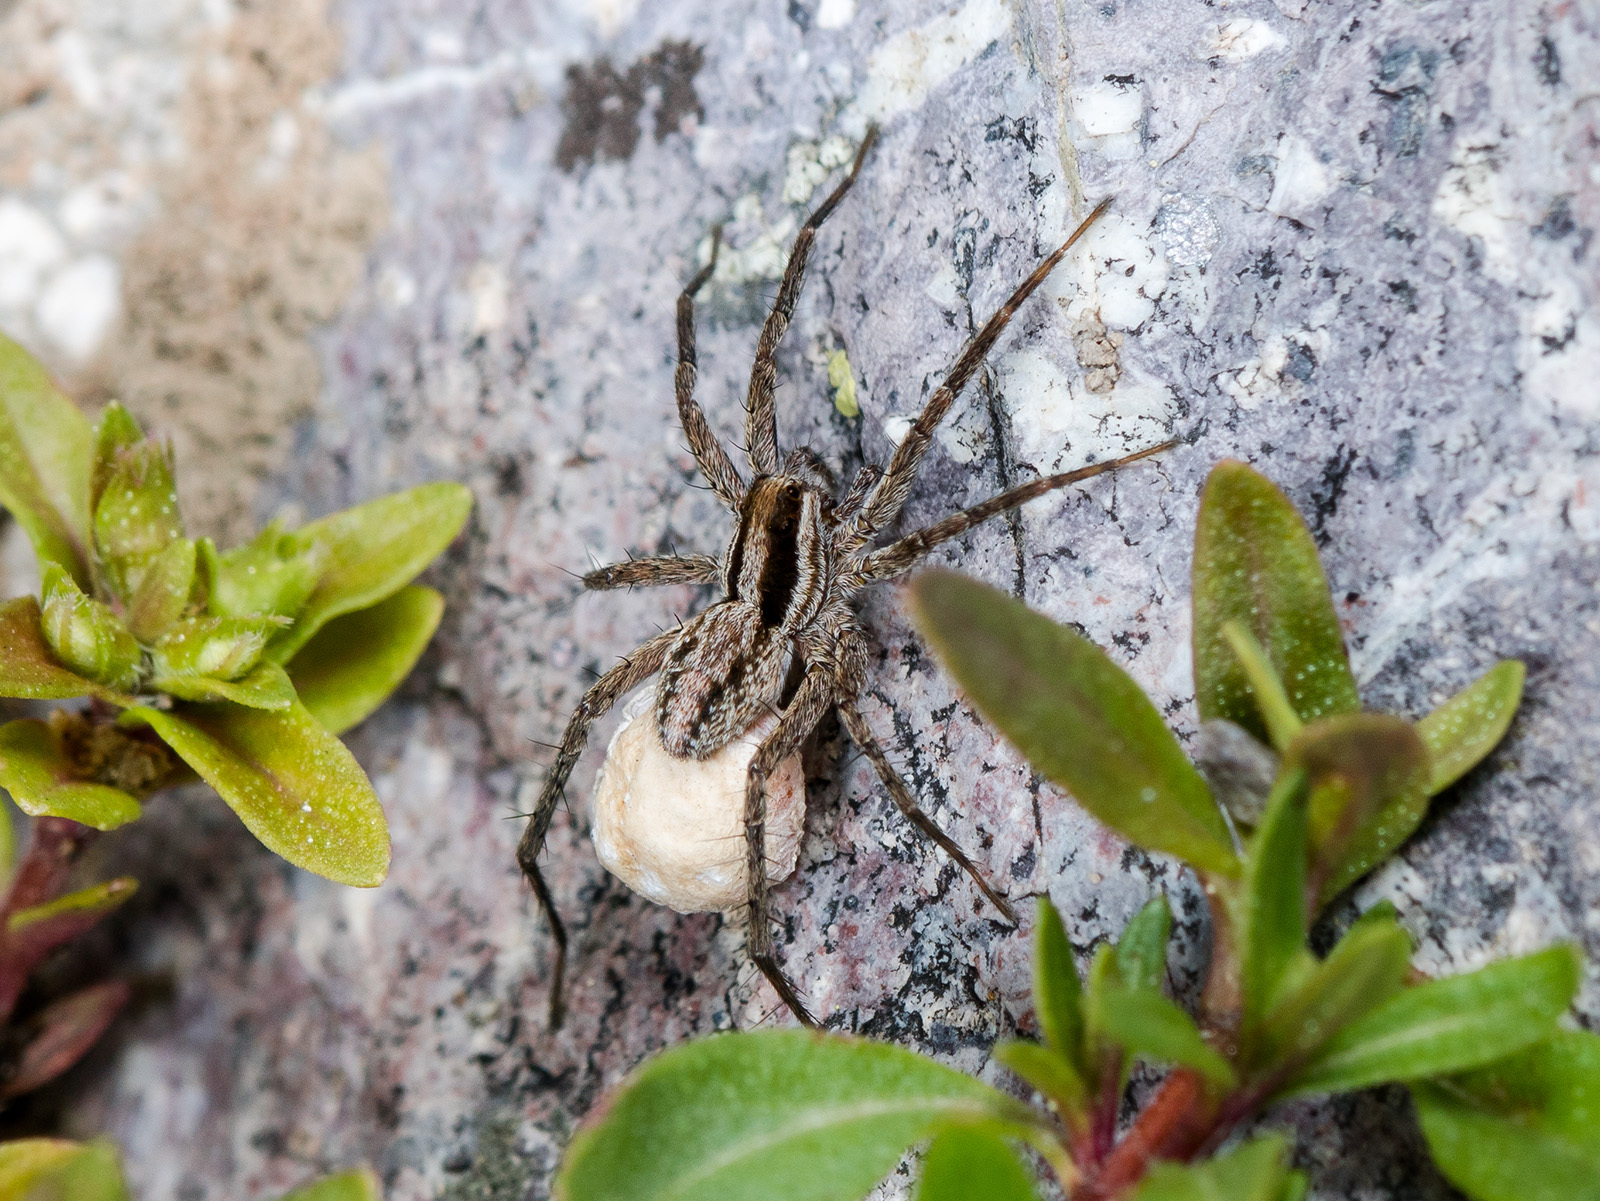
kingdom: Animalia
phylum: Arthropoda
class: Arachnida
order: Araneae
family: Lycosidae
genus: Pardosa
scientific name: Pardosa bifasciata
